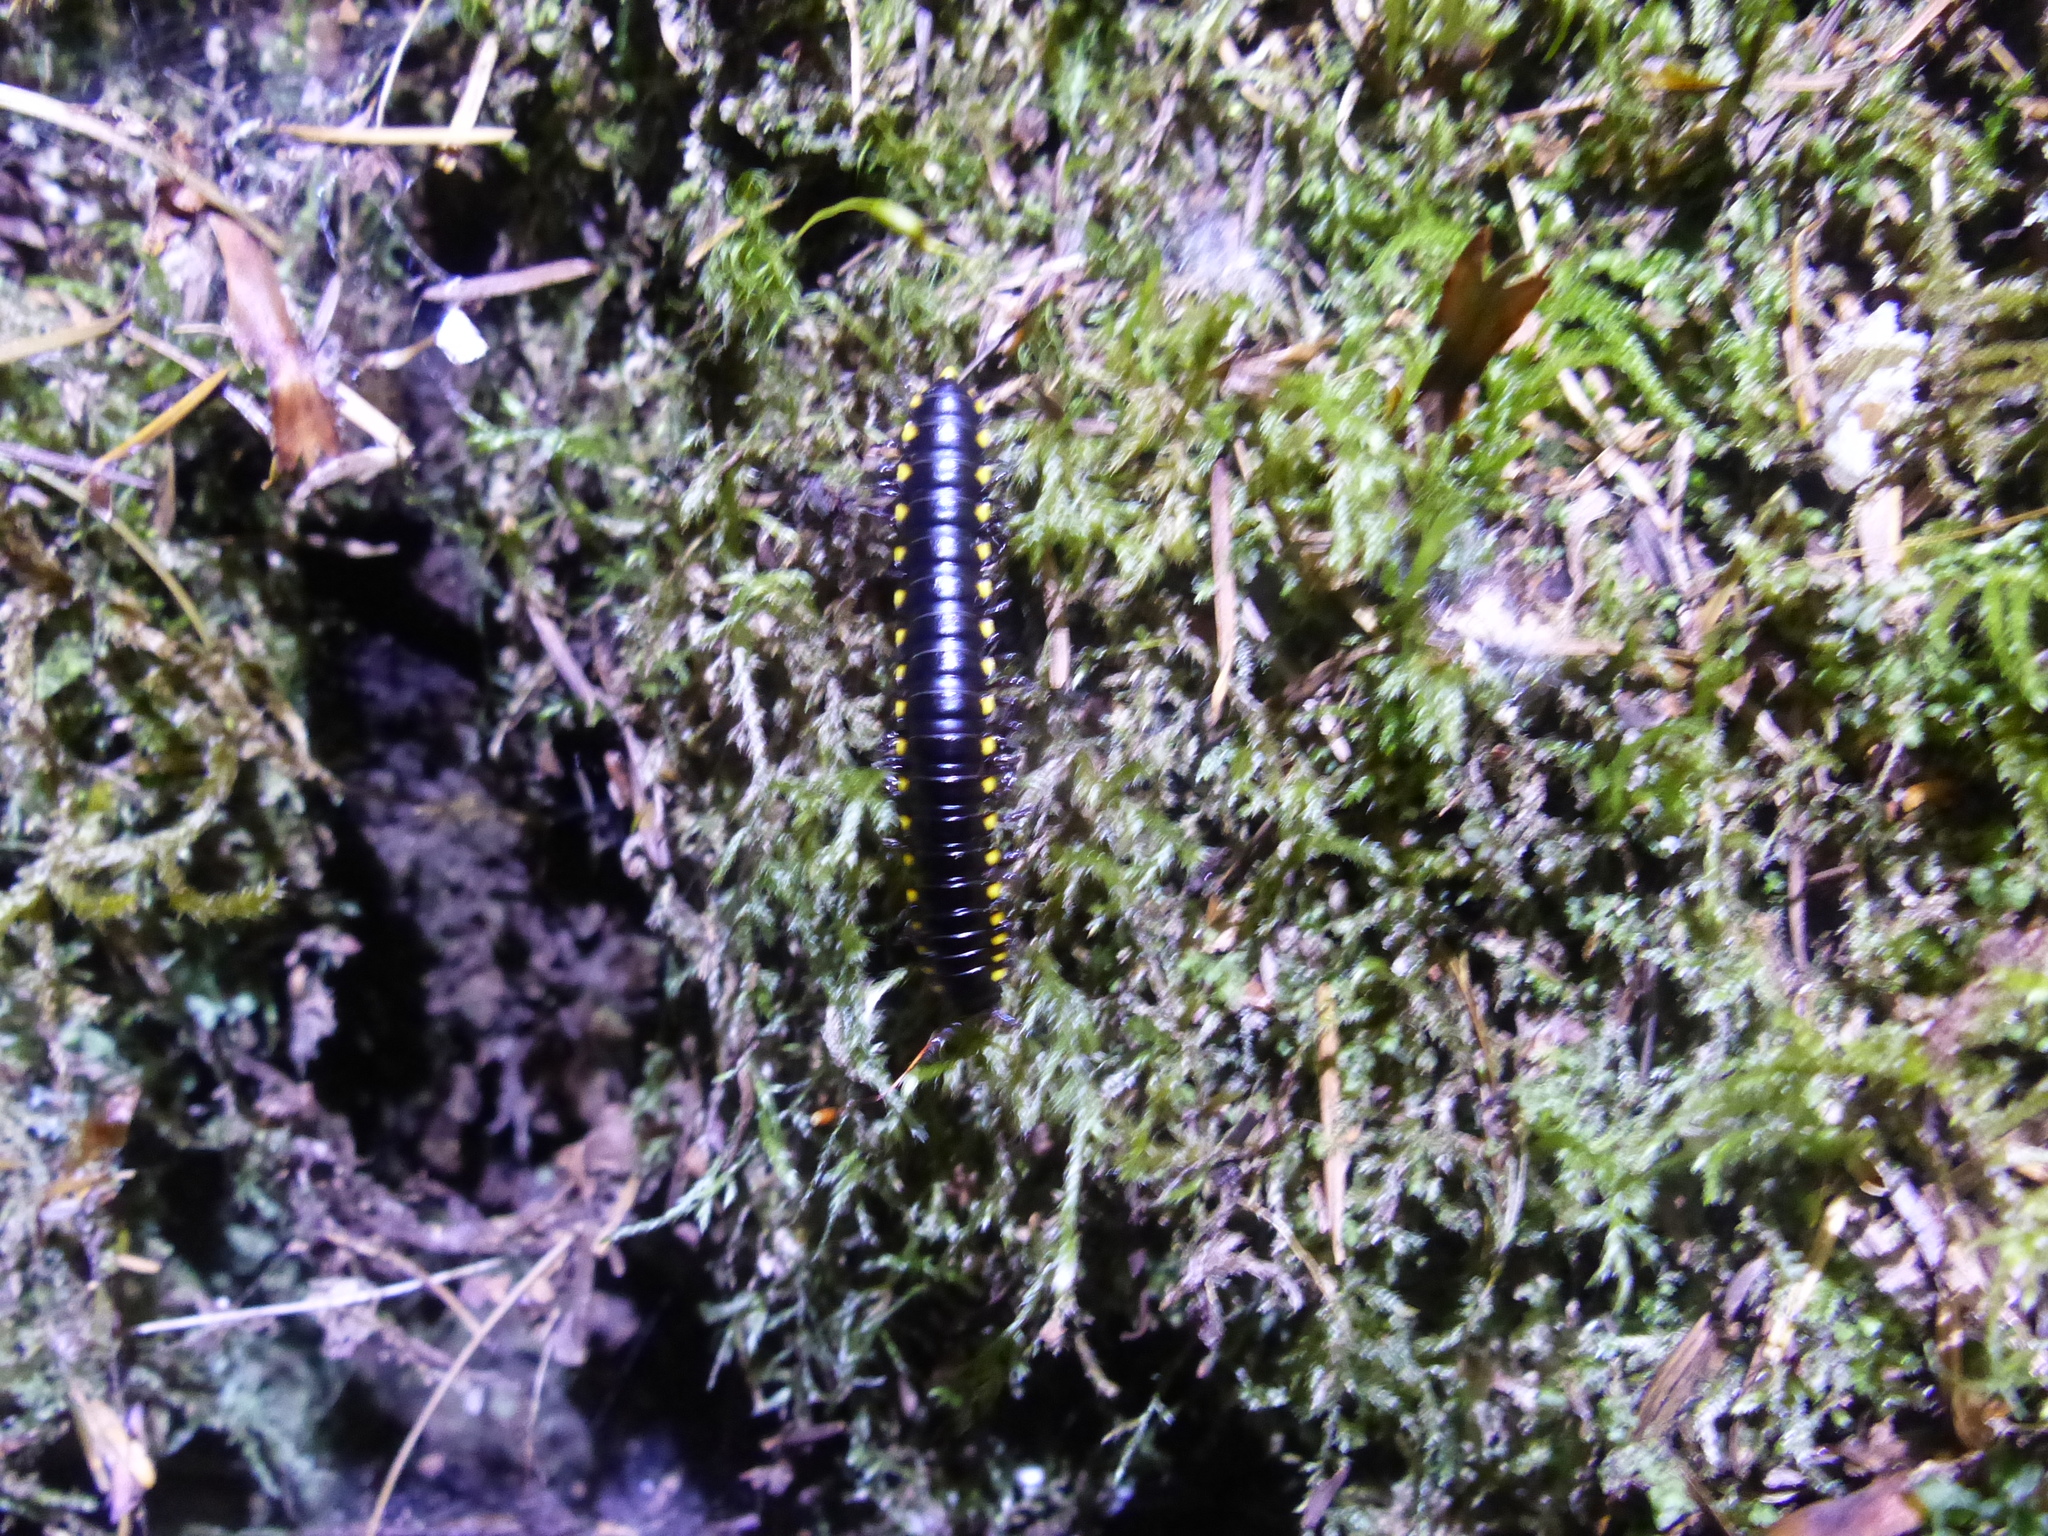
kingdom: Animalia
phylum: Arthropoda
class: Diplopoda
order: Polydesmida
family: Xystodesmidae
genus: Harpaphe
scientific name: Harpaphe haydeniana
